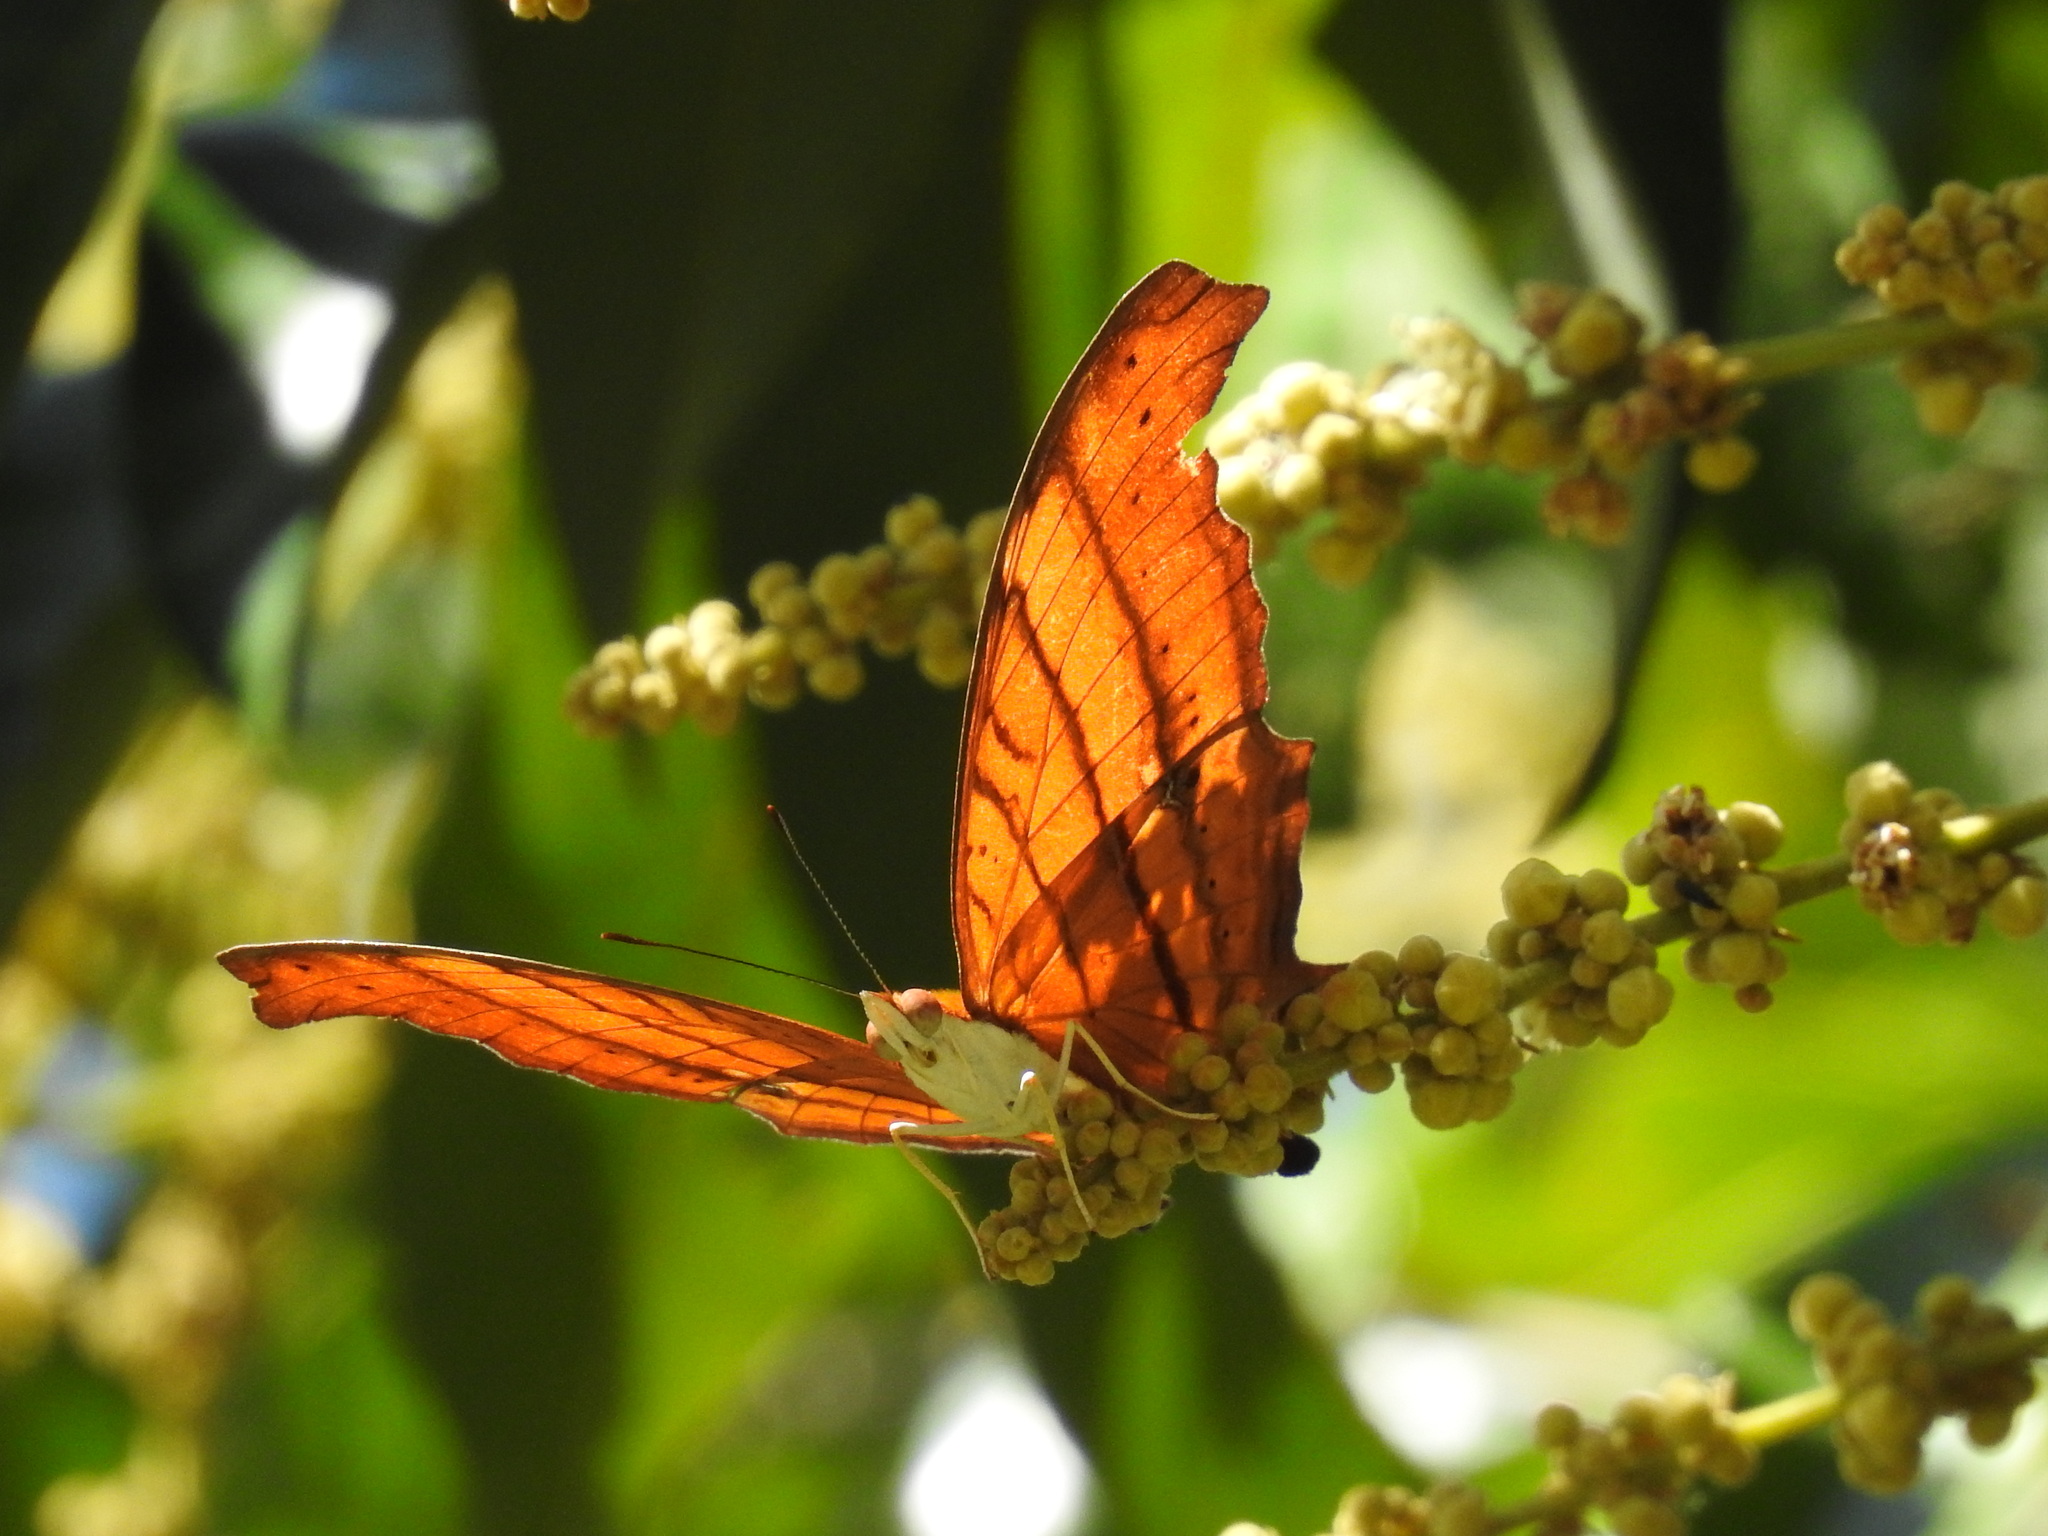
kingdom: Animalia
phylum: Arthropoda
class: Insecta
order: Lepidoptera
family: Nymphalidae
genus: Marpesia
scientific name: Marpesia petreus
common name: Red dagger wing
